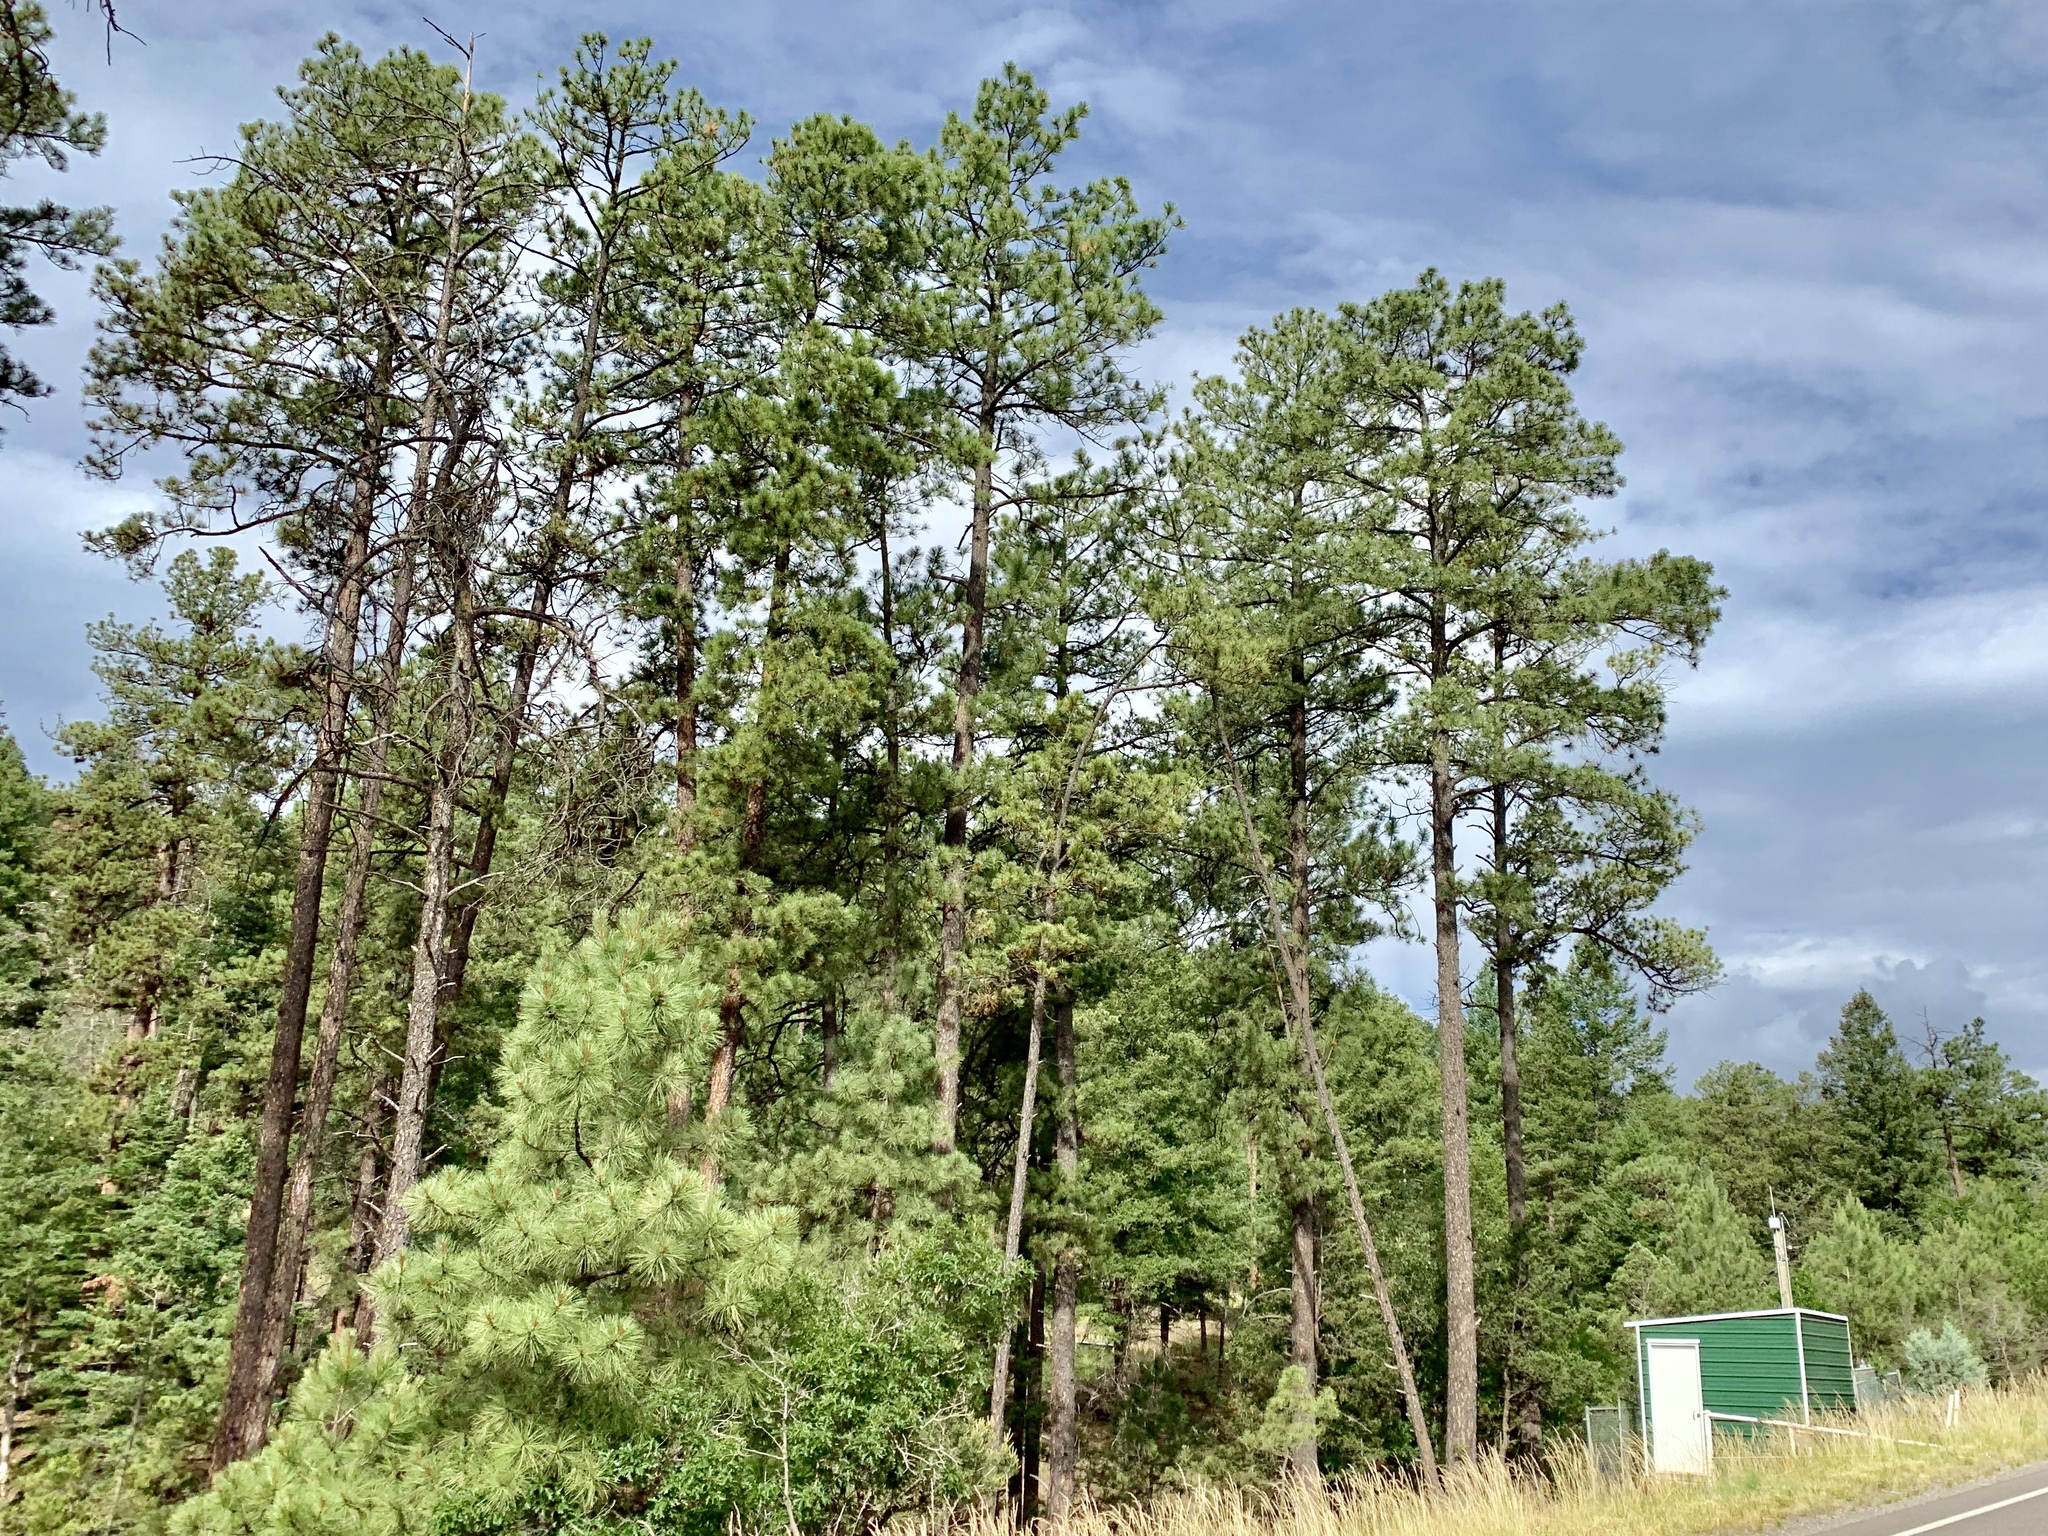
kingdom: Plantae
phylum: Tracheophyta
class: Pinopsida
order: Pinales
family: Pinaceae
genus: Pinus
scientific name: Pinus ponderosa
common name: Western yellow-pine
